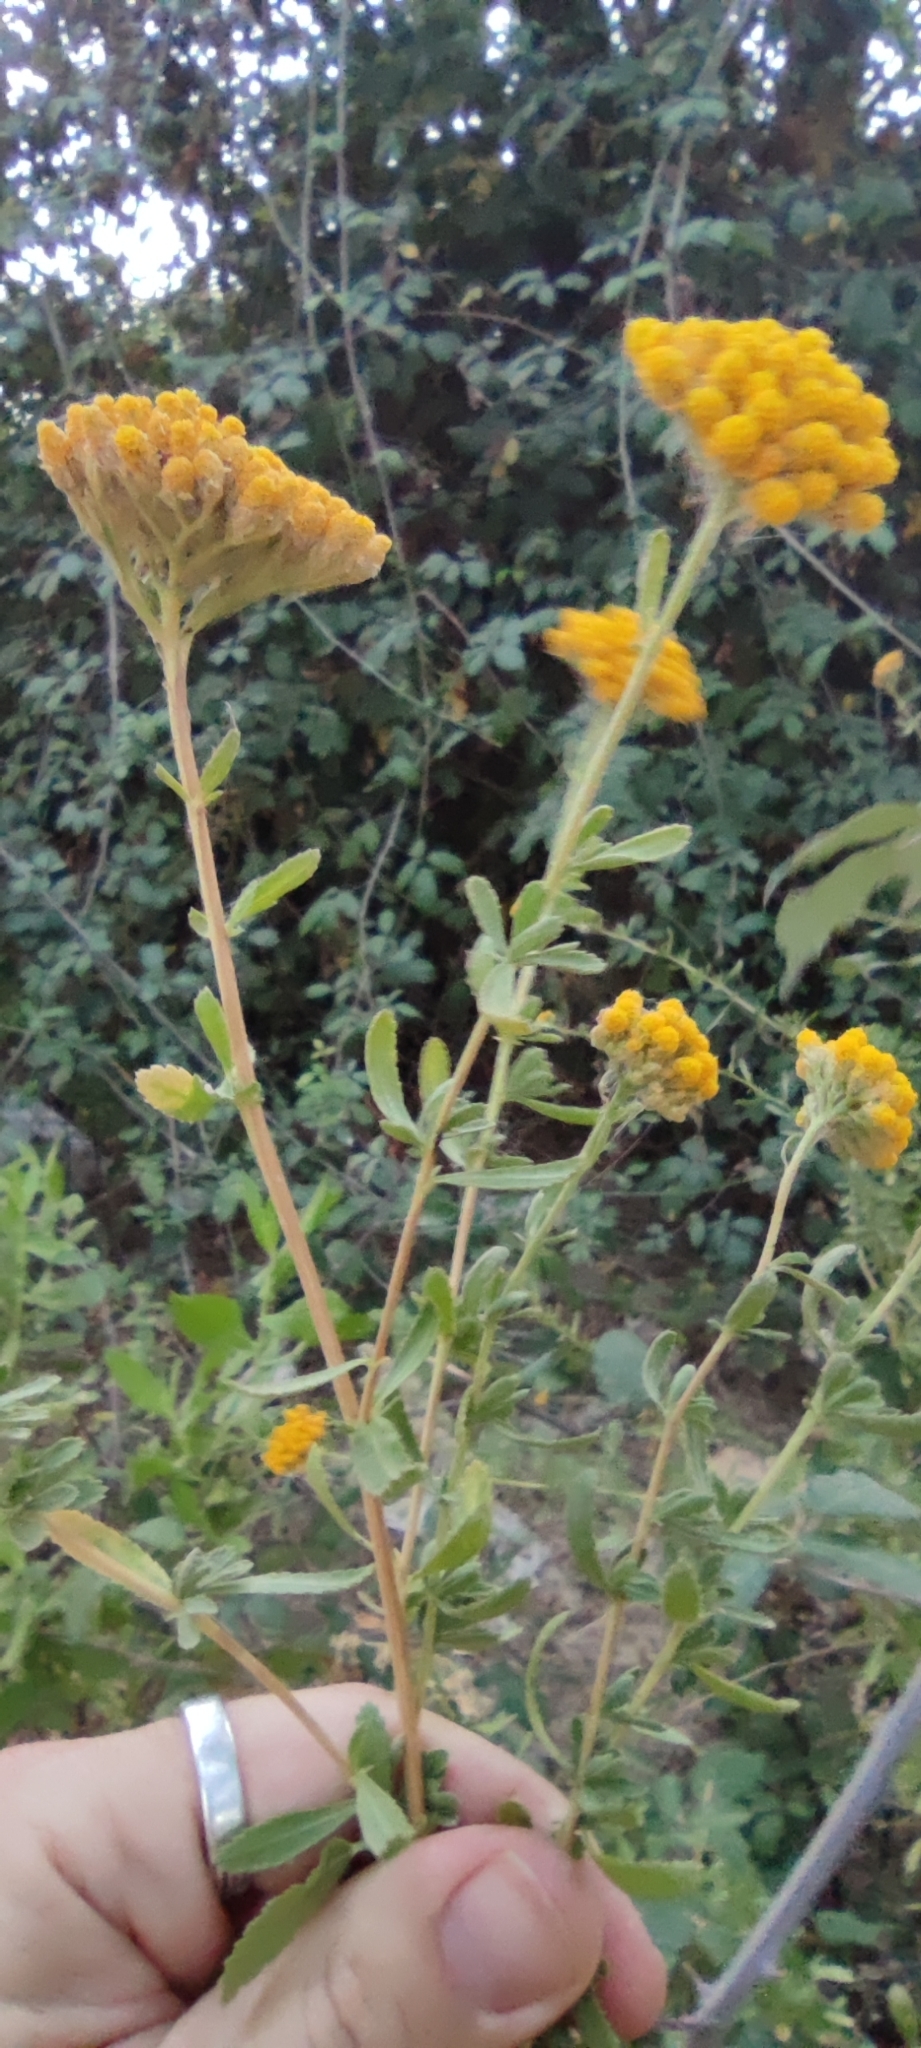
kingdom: Plantae
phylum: Tracheophyta
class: Magnoliopsida
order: Asterales
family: Asteraceae
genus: Achillea
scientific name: Achillea ageratum
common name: Sweet-nancy
